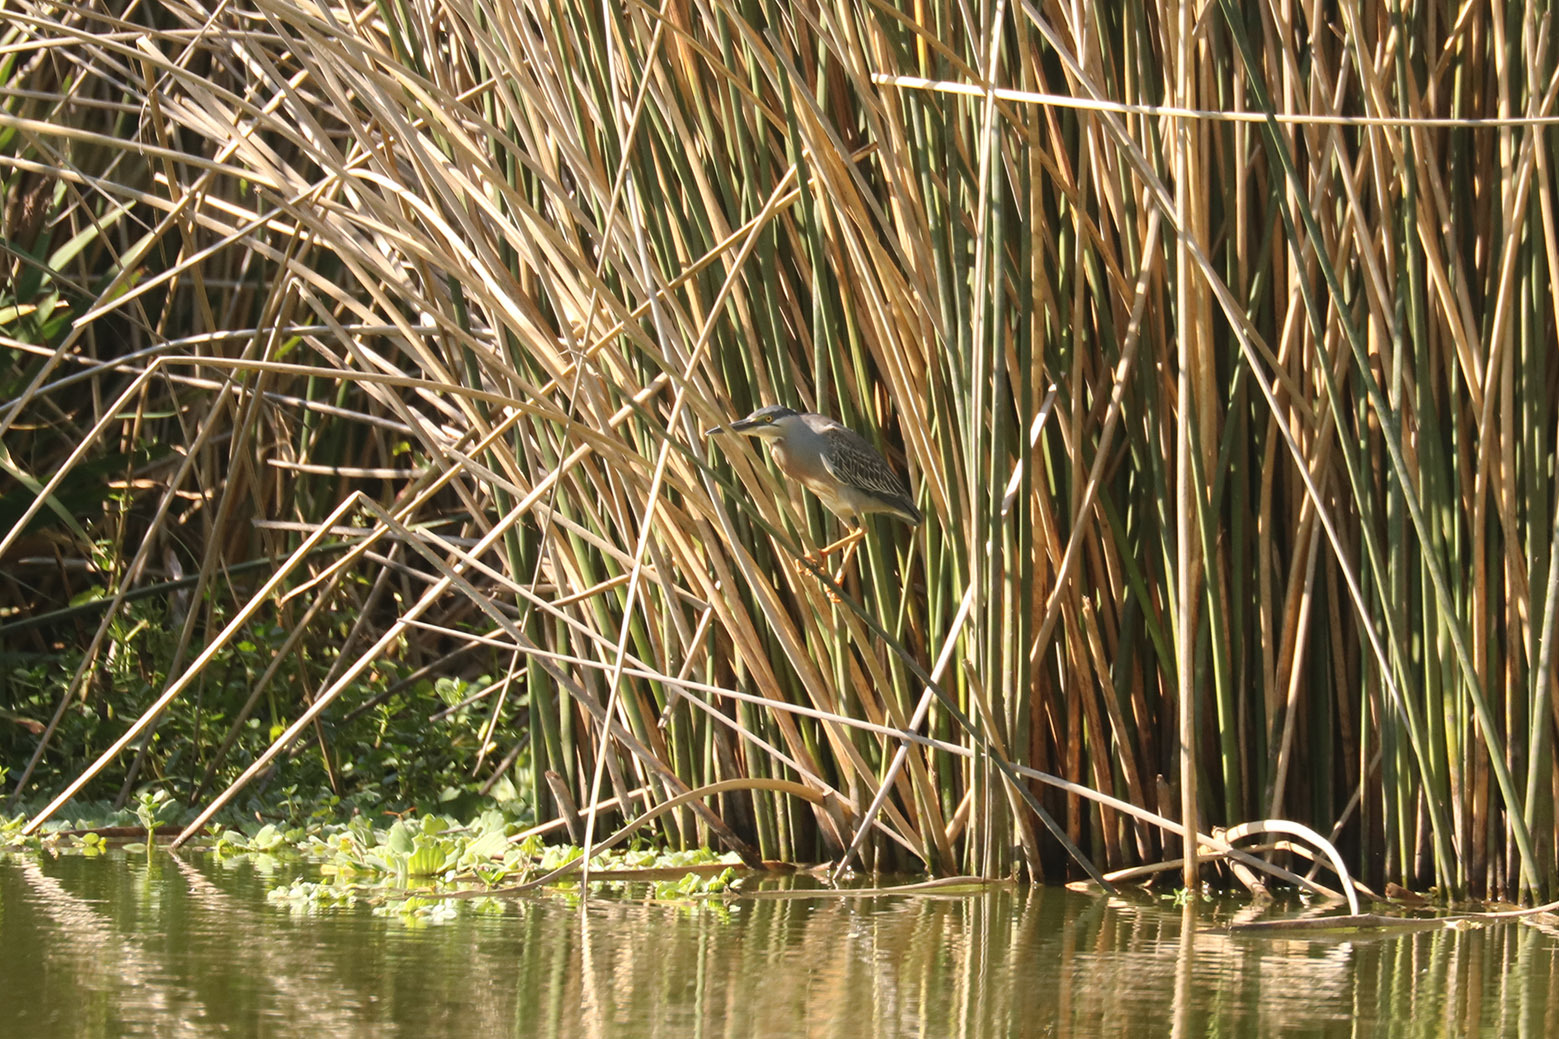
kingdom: Animalia
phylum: Chordata
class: Aves
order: Pelecaniformes
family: Ardeidae
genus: Butorides
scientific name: Butorides striata
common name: Striated heron
